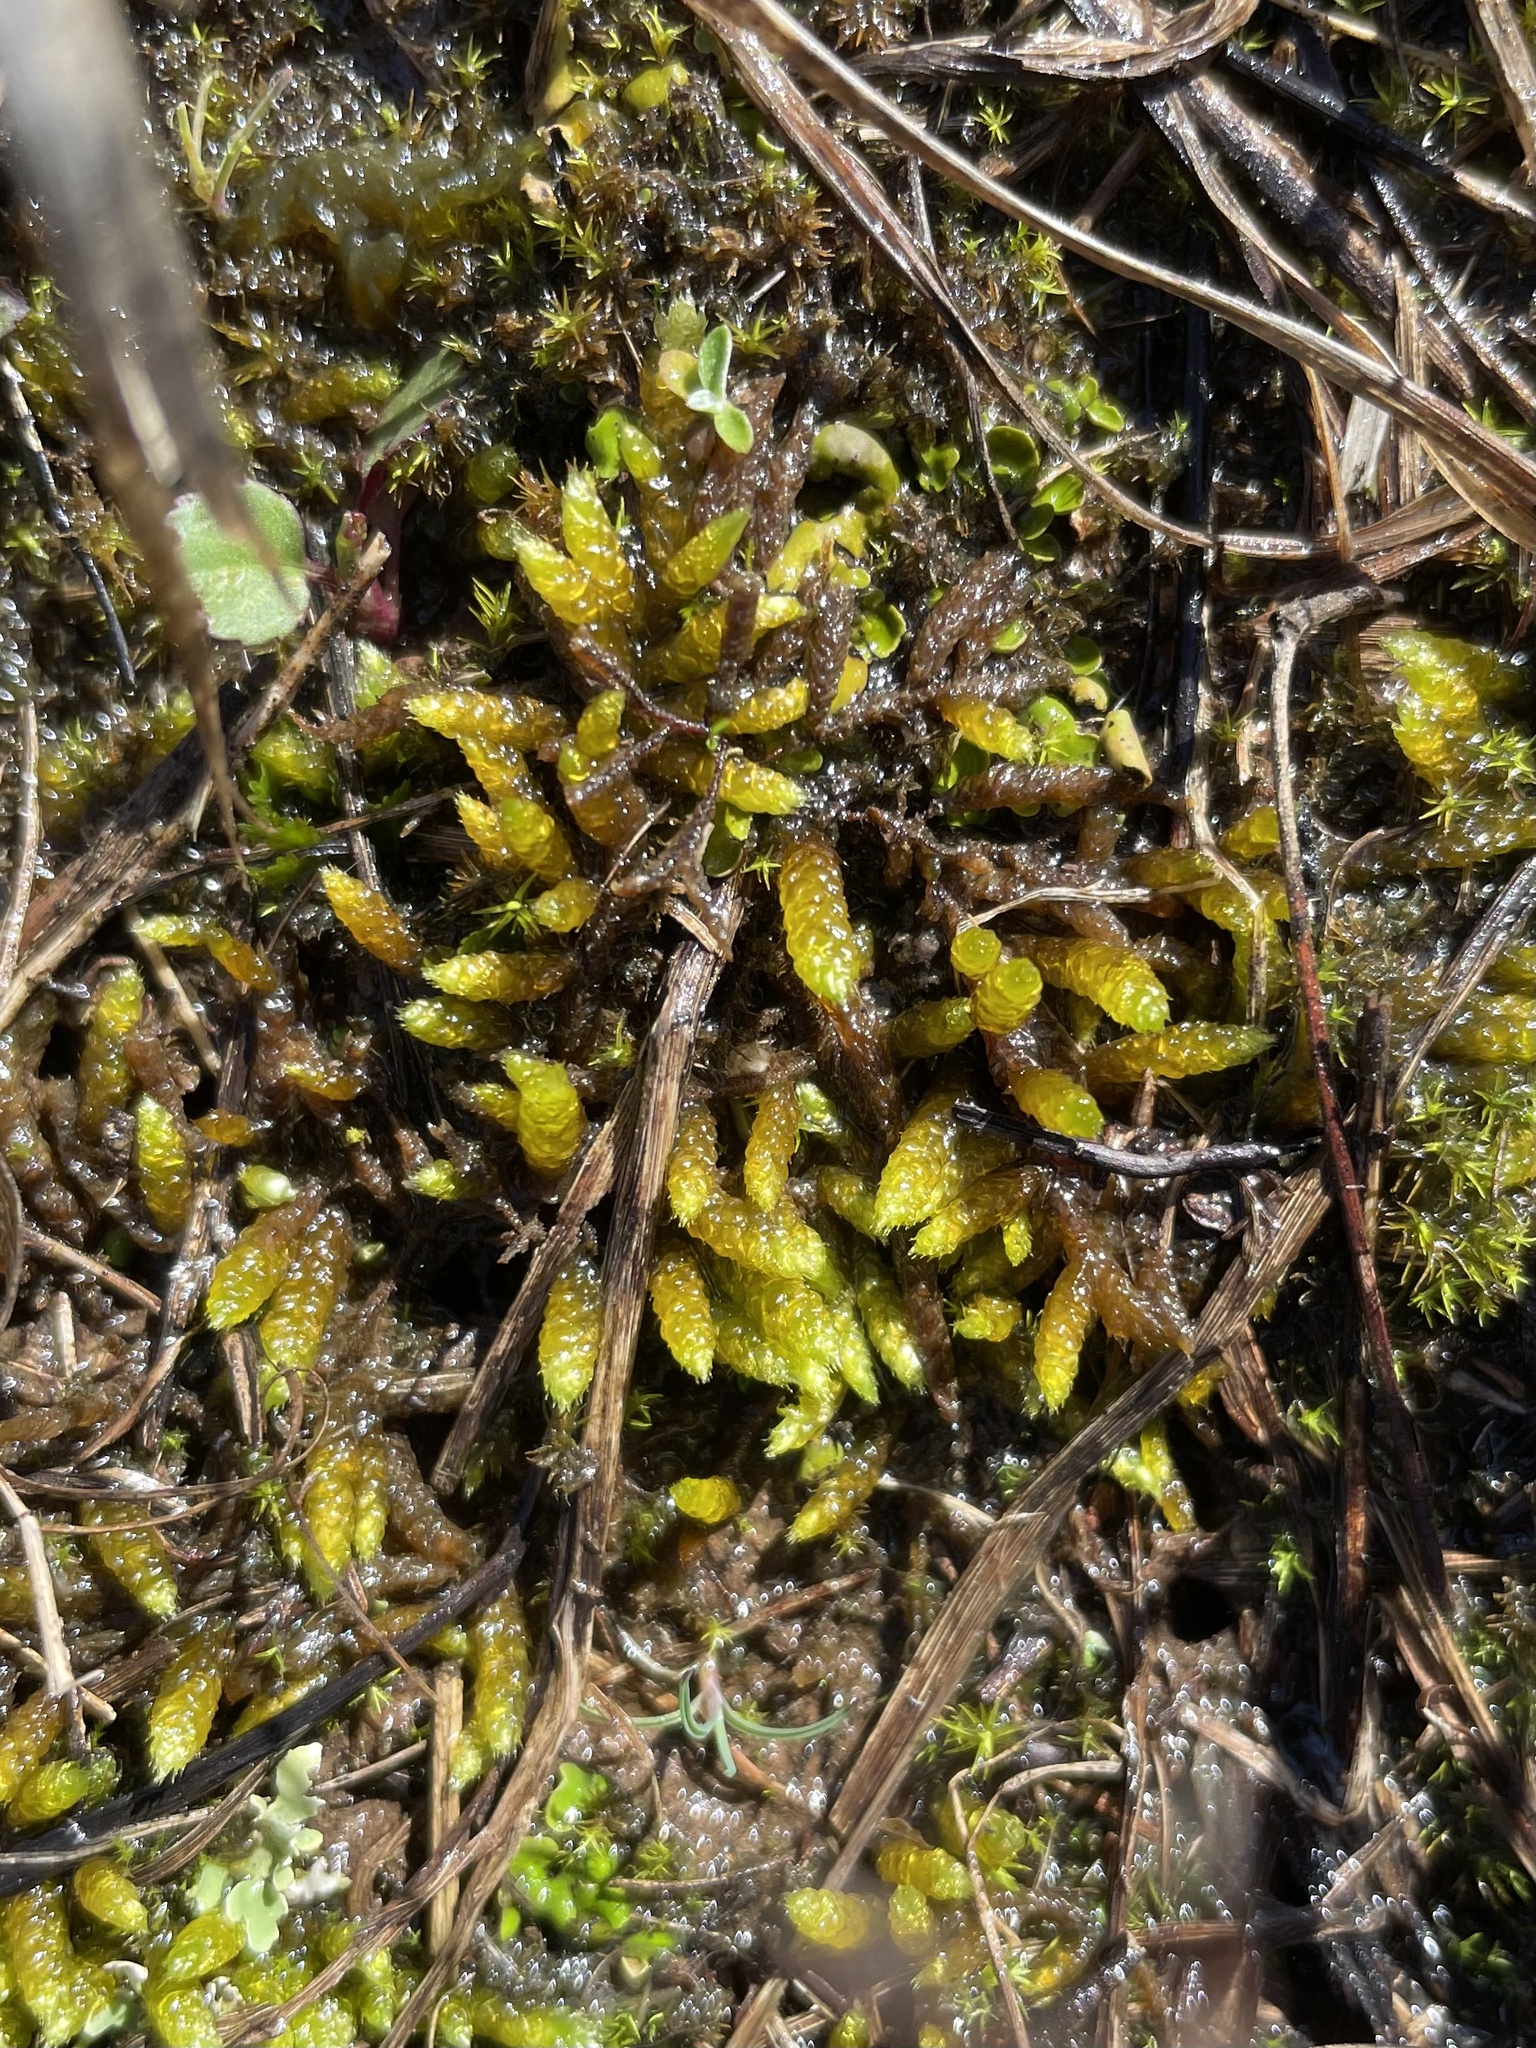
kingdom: Plantae
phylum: Bryophyta
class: Bryopsida
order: Hypnales
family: Brachytheciaceae
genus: Bryoandersonia
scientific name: Bryoandersonia illecebra
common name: Spoon-leaved moss
